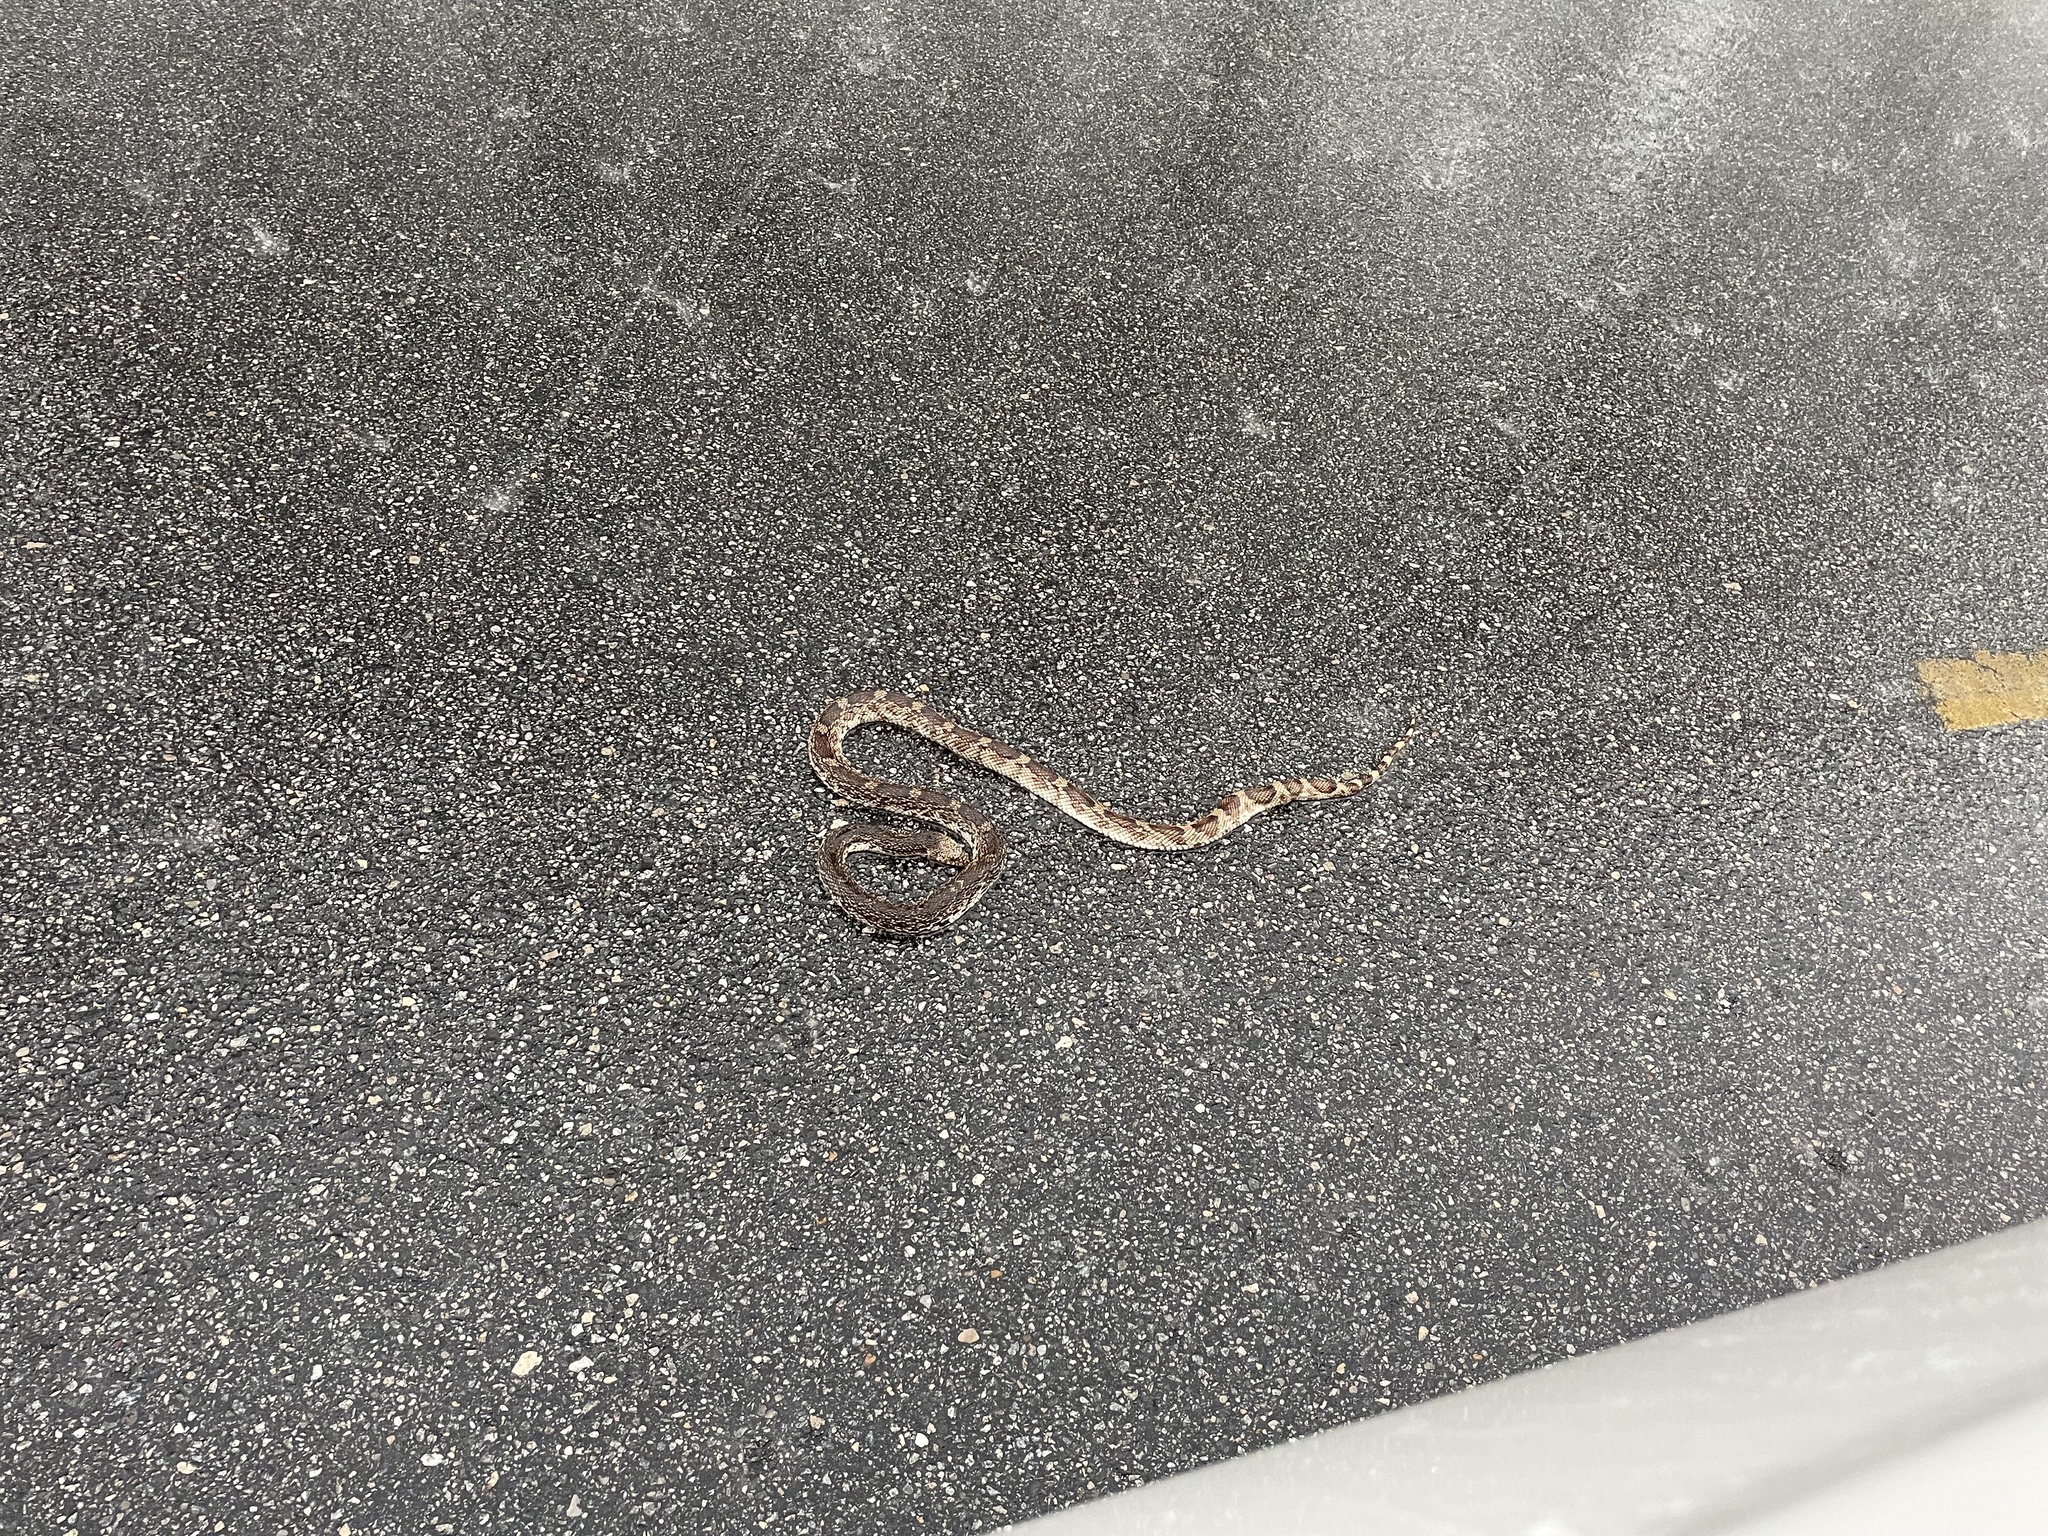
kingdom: Animalia
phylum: Chordata
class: Squamata
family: Colubridae
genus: Pituophis
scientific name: Pituophis melanoleucus
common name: Pine snake
